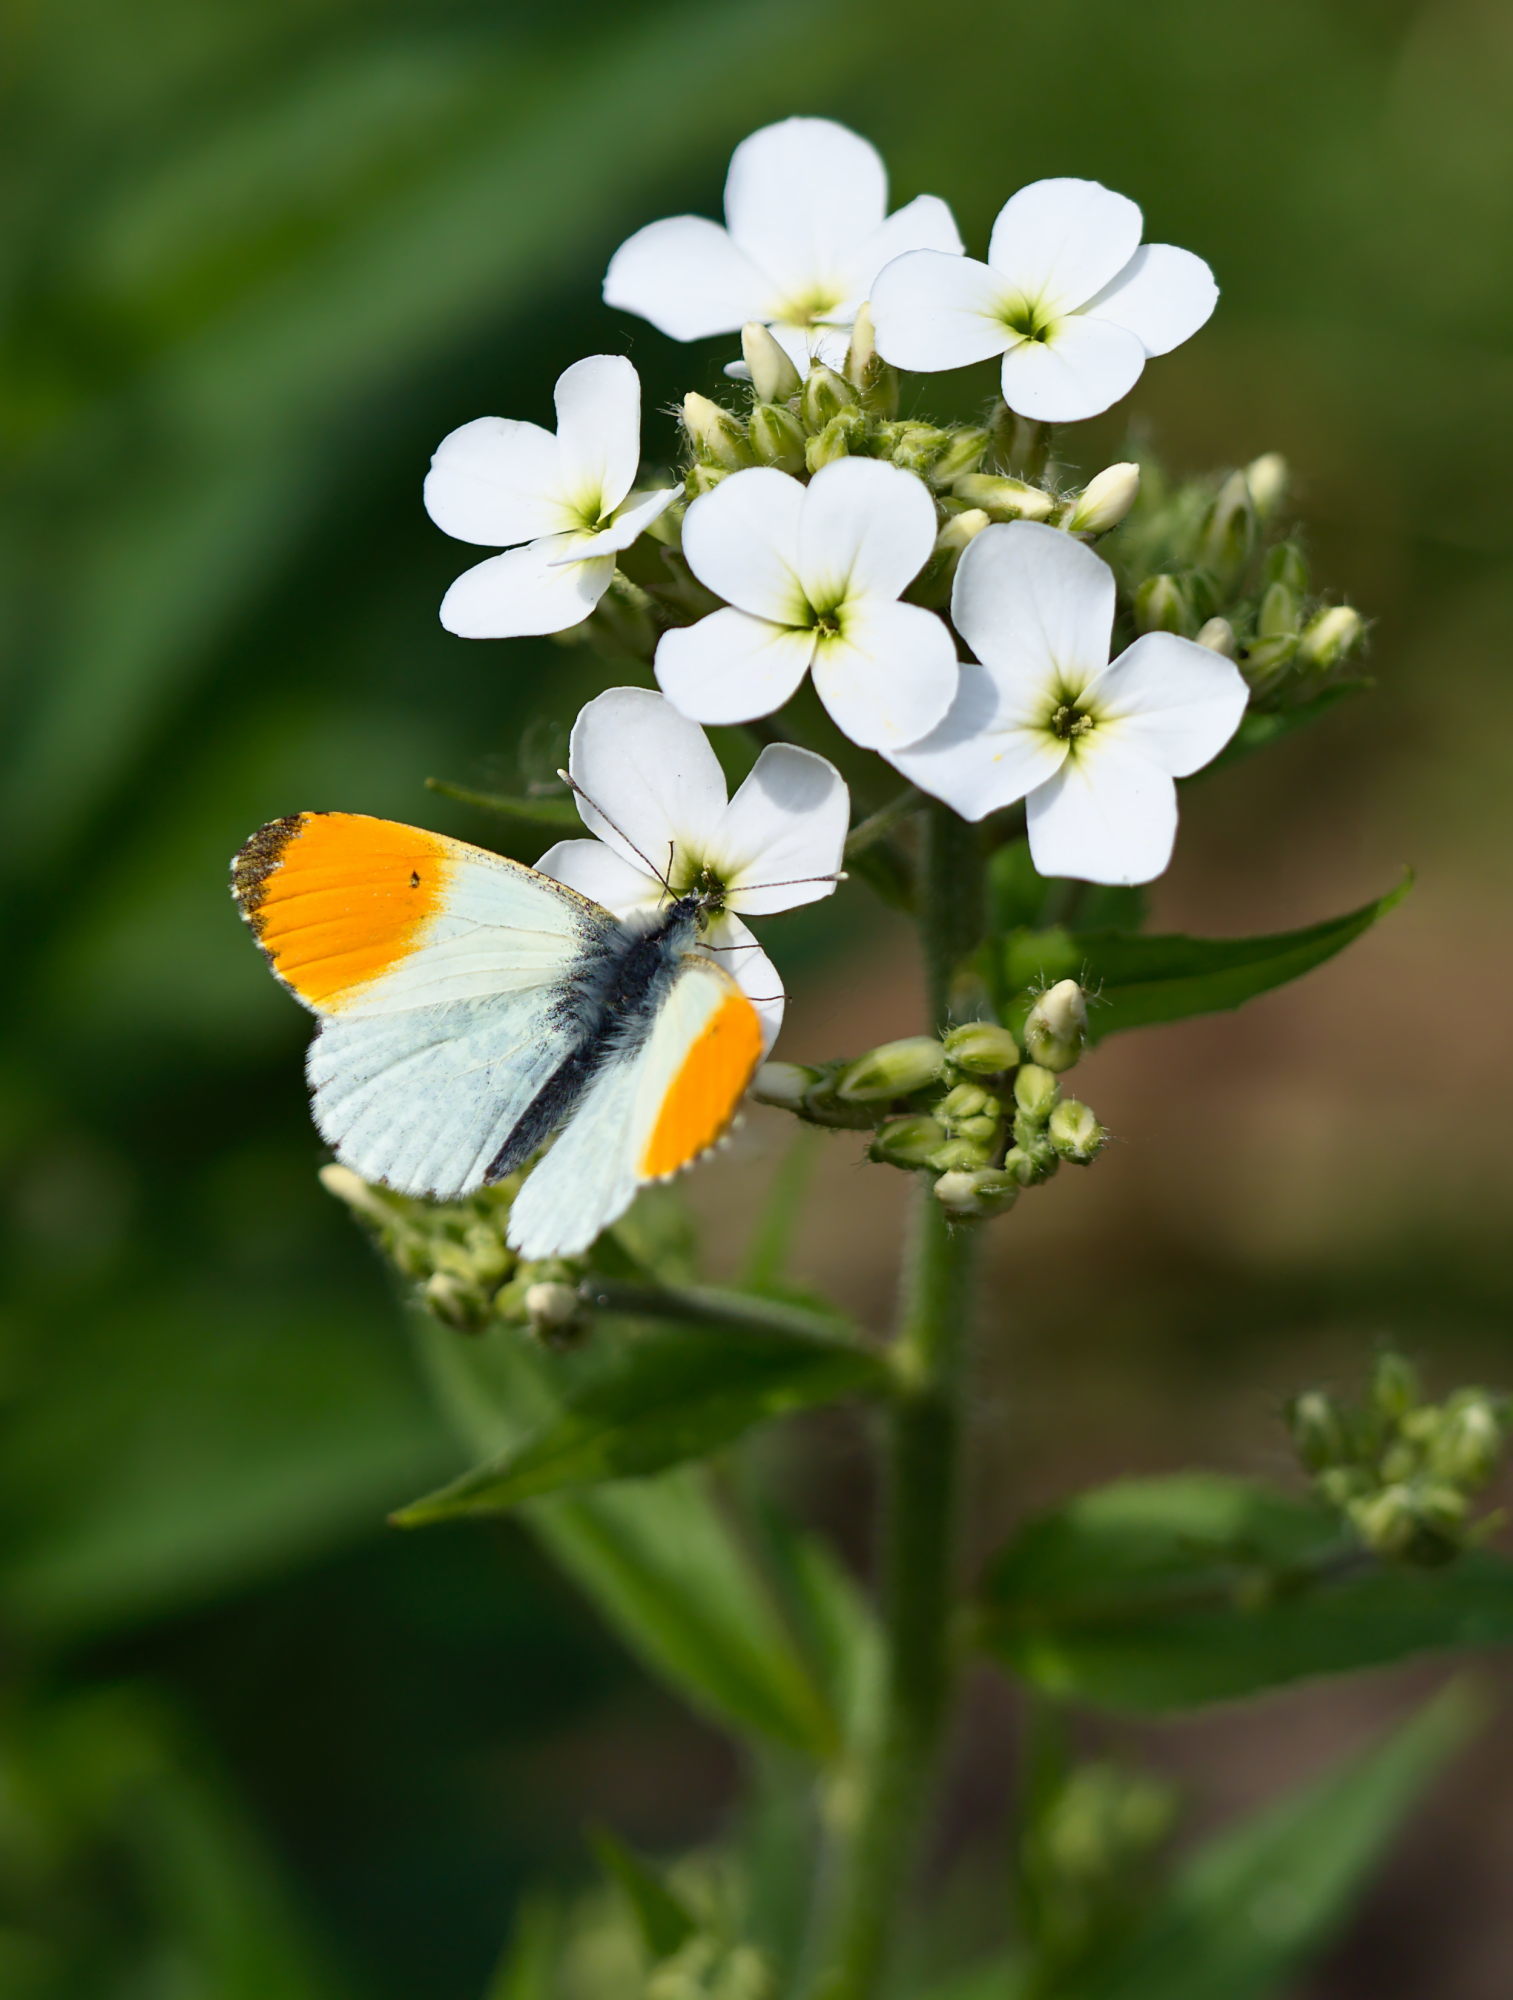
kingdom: Animalia
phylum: Arthropoda
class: Insecta
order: Lepidoptera
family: Pieridae
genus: Anthocharis
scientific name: Anthocharis cardamines
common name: Orange-tip
